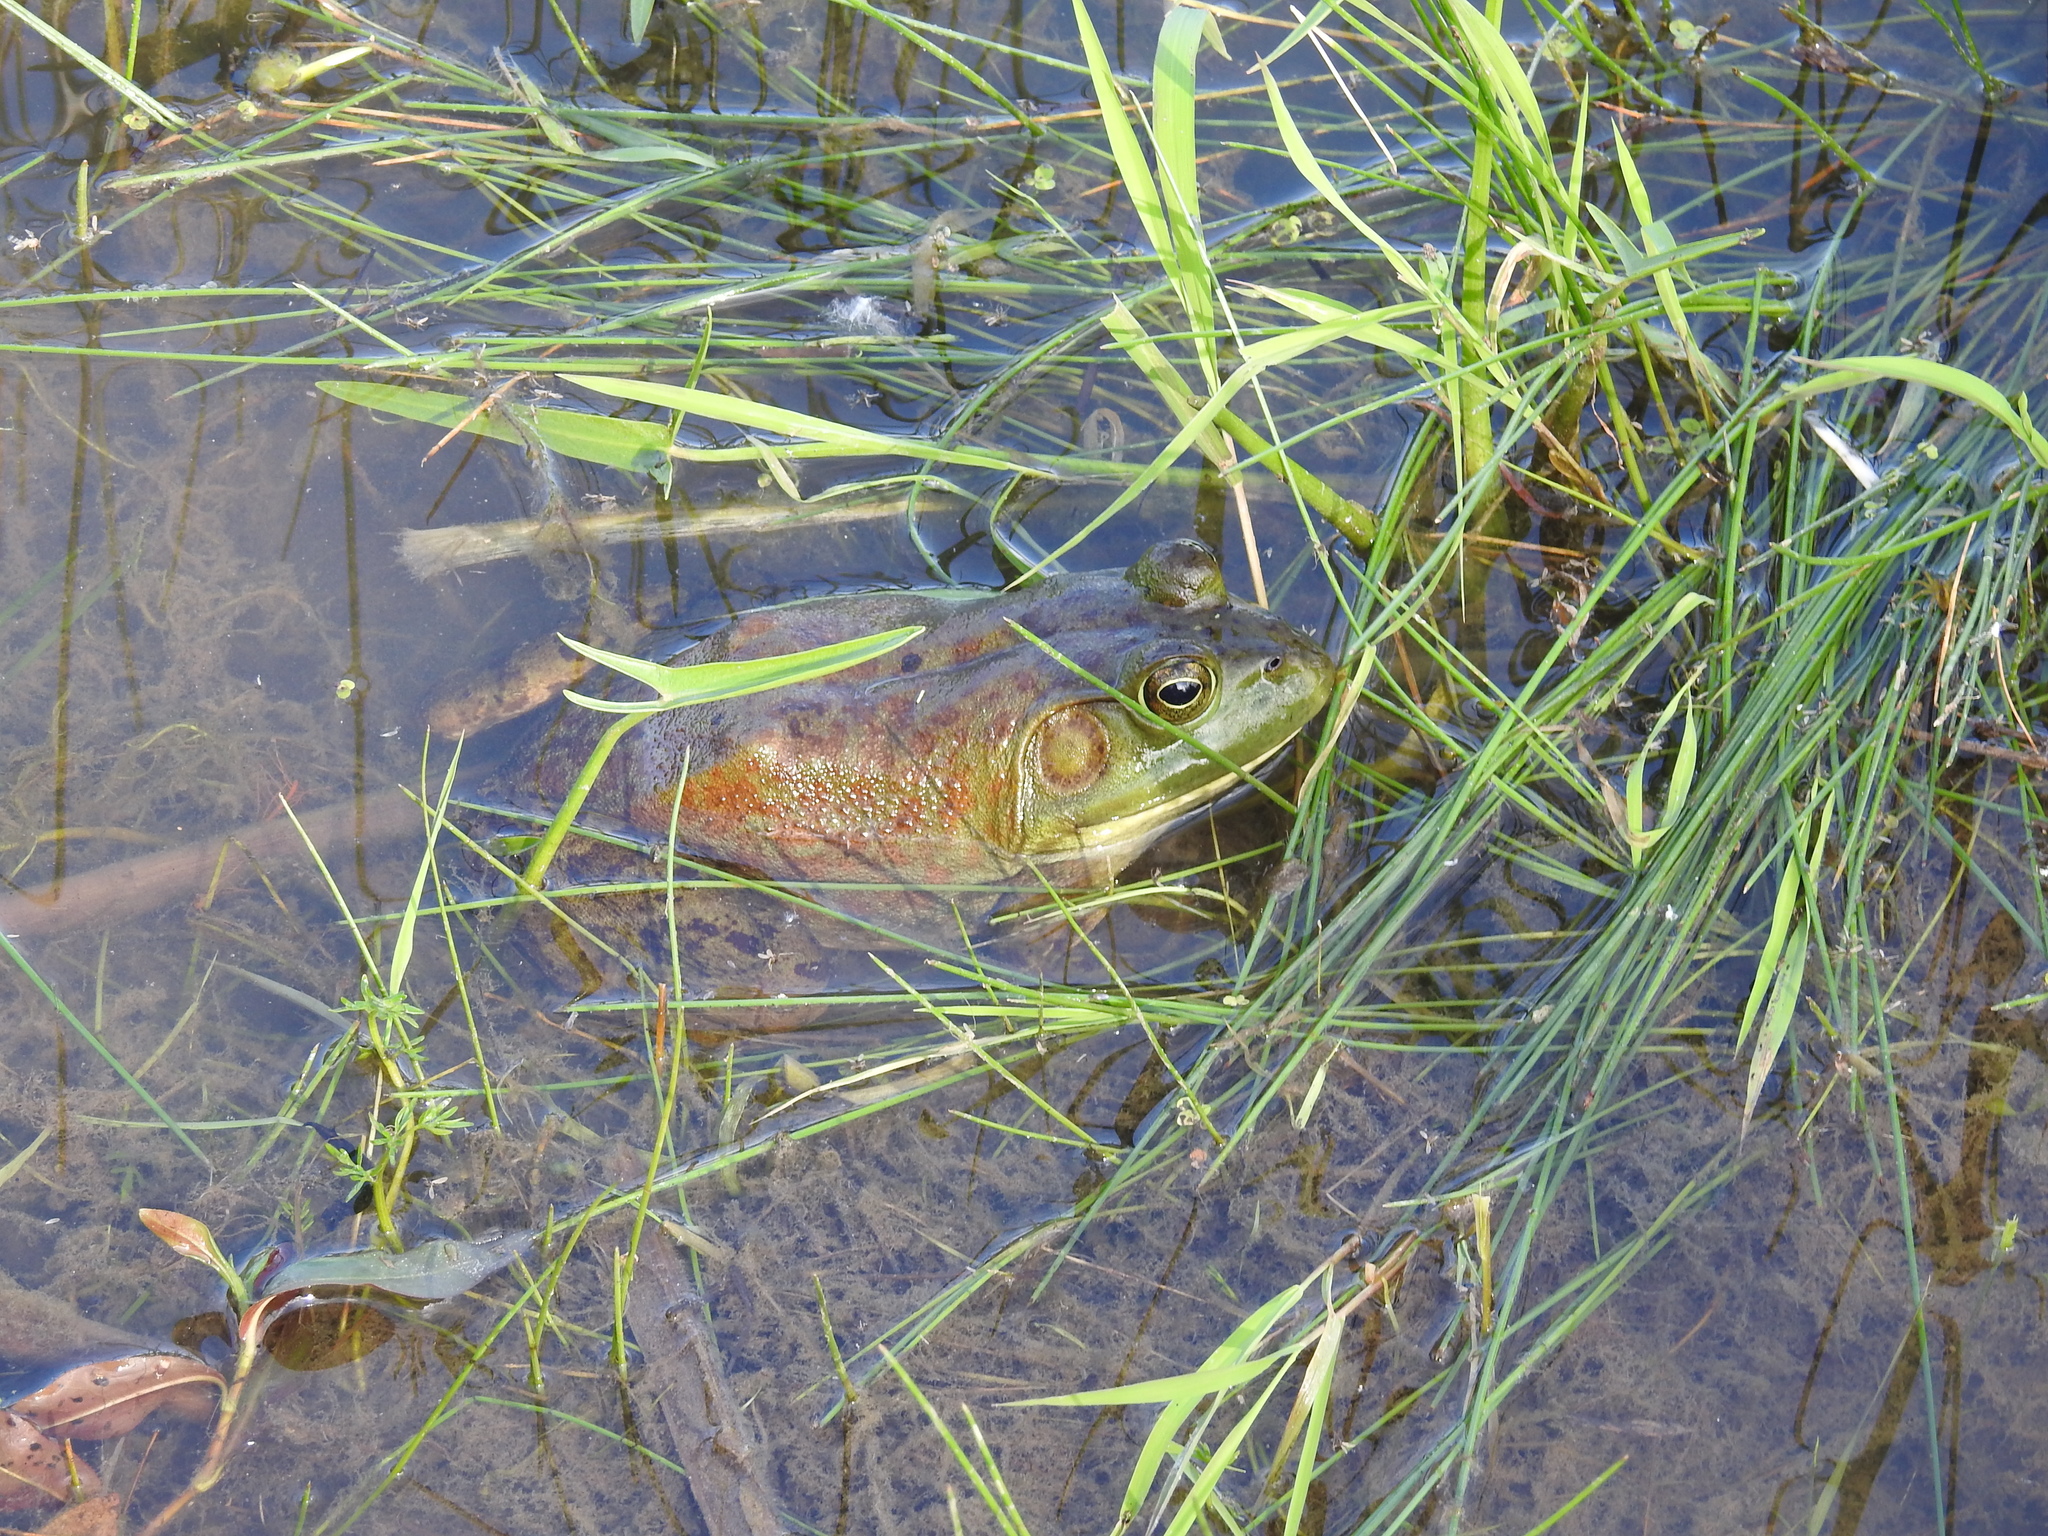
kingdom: Animalia
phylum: Chordata
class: Amphibia
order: Anura
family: Ranidae
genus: Lithobates
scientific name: Lithobates catesbeianus
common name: American bullfrog
